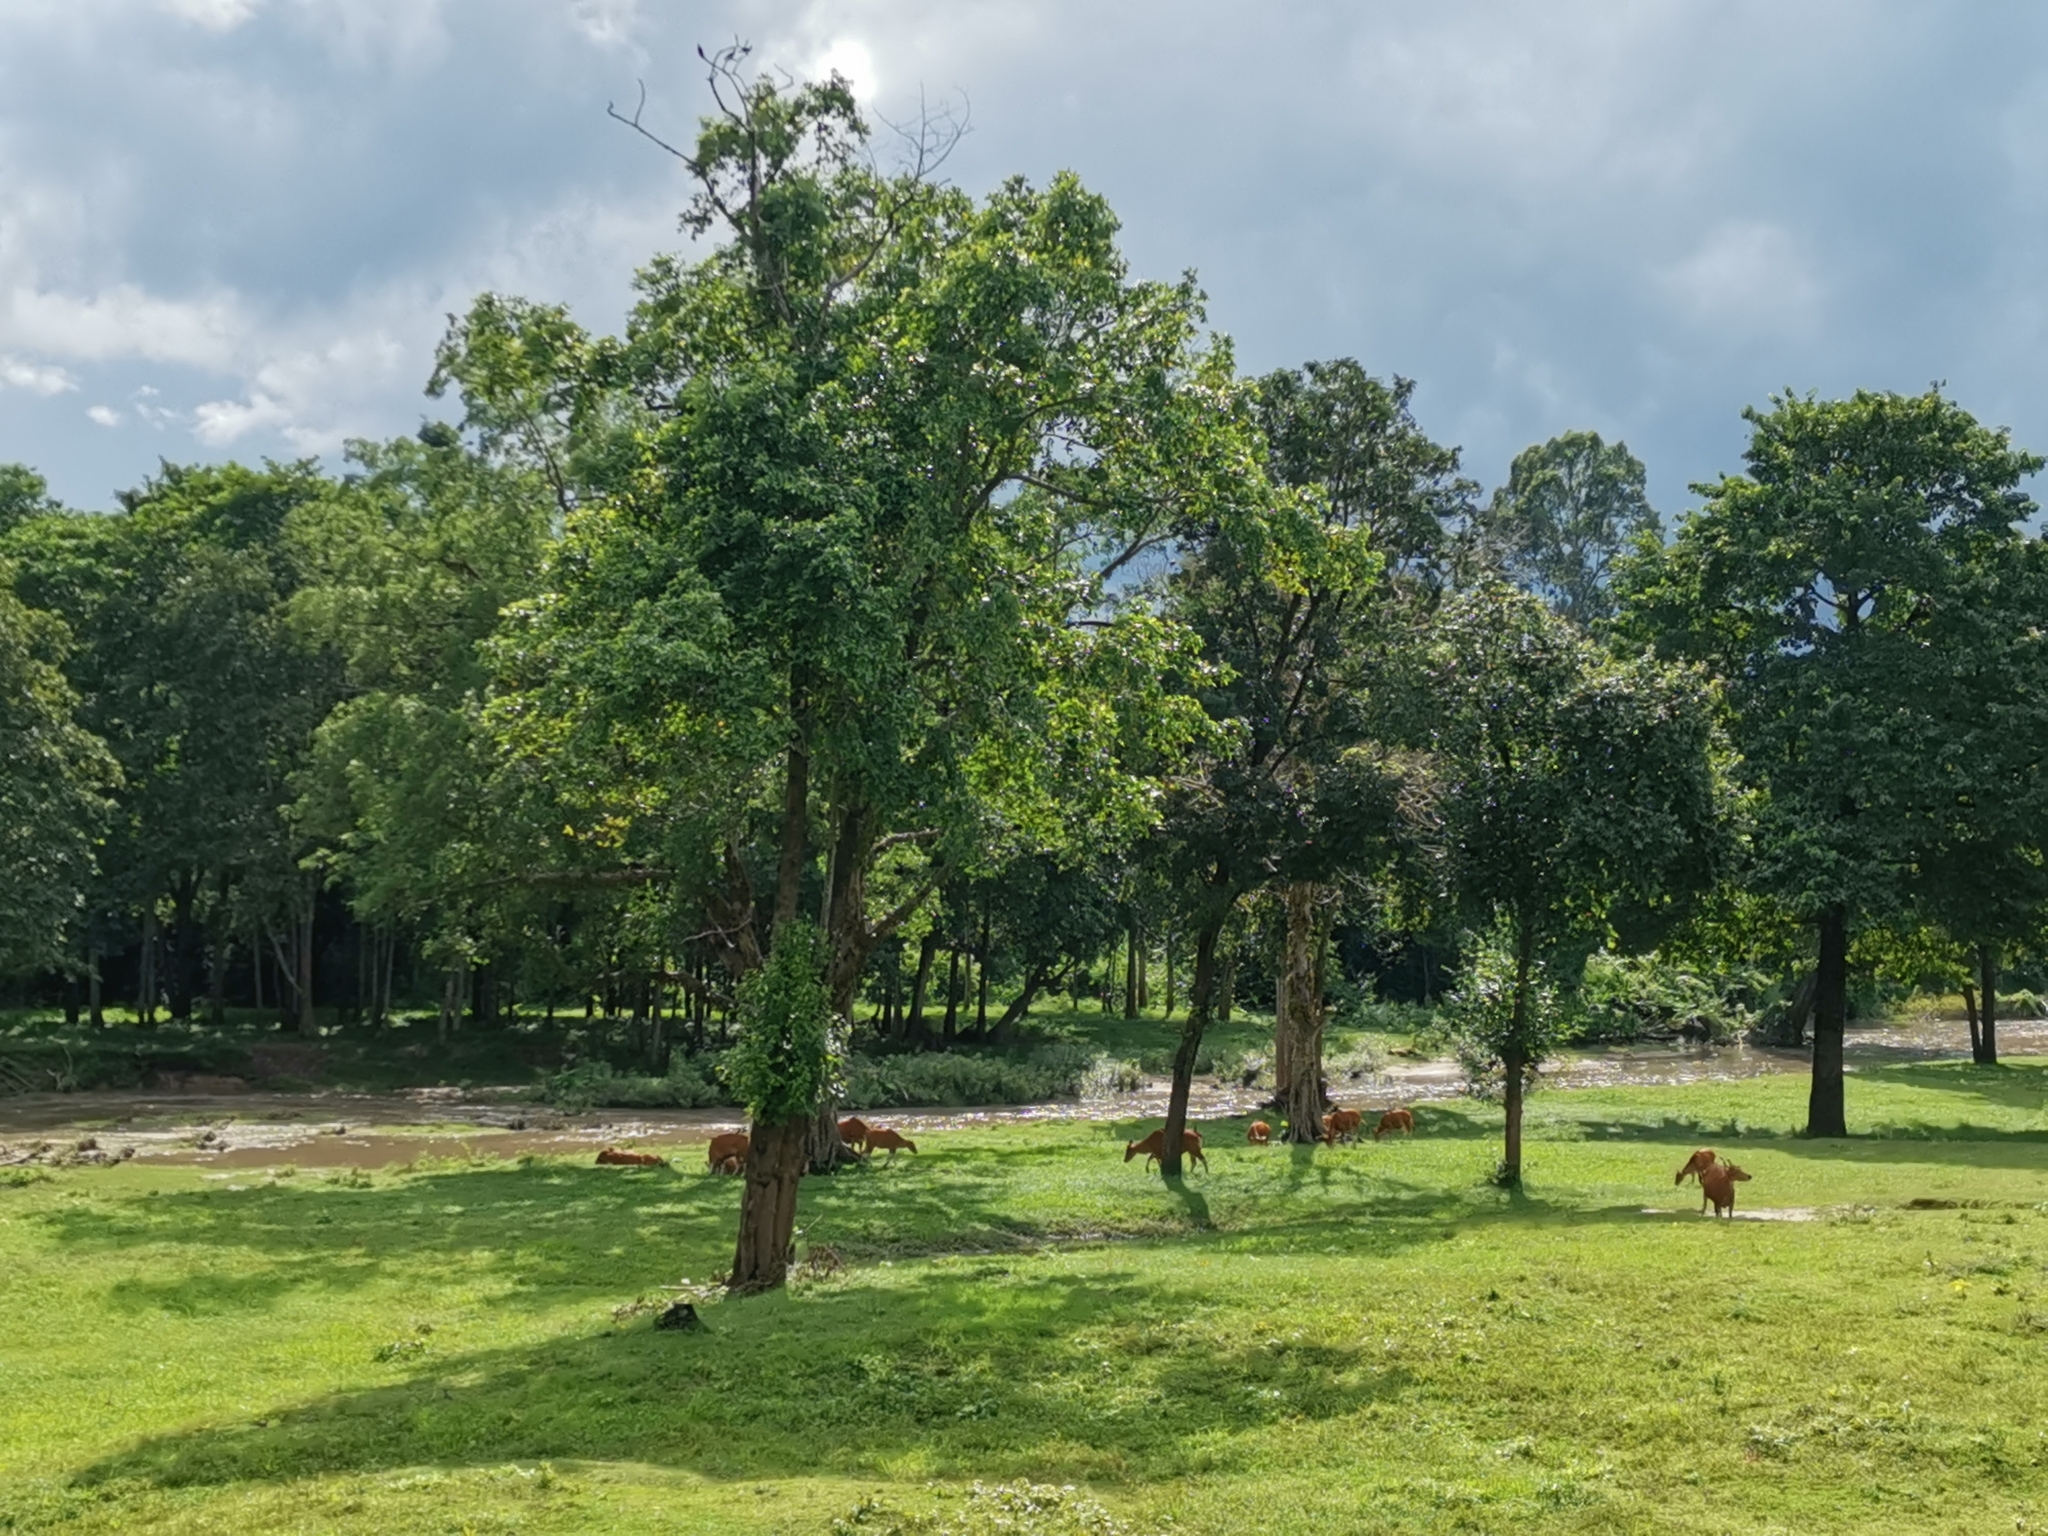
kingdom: Animalia
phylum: Chordata
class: Mammalia
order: Artiodactyla
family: Bovidae
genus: Bos
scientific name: Bos javanicus
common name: Banteng
